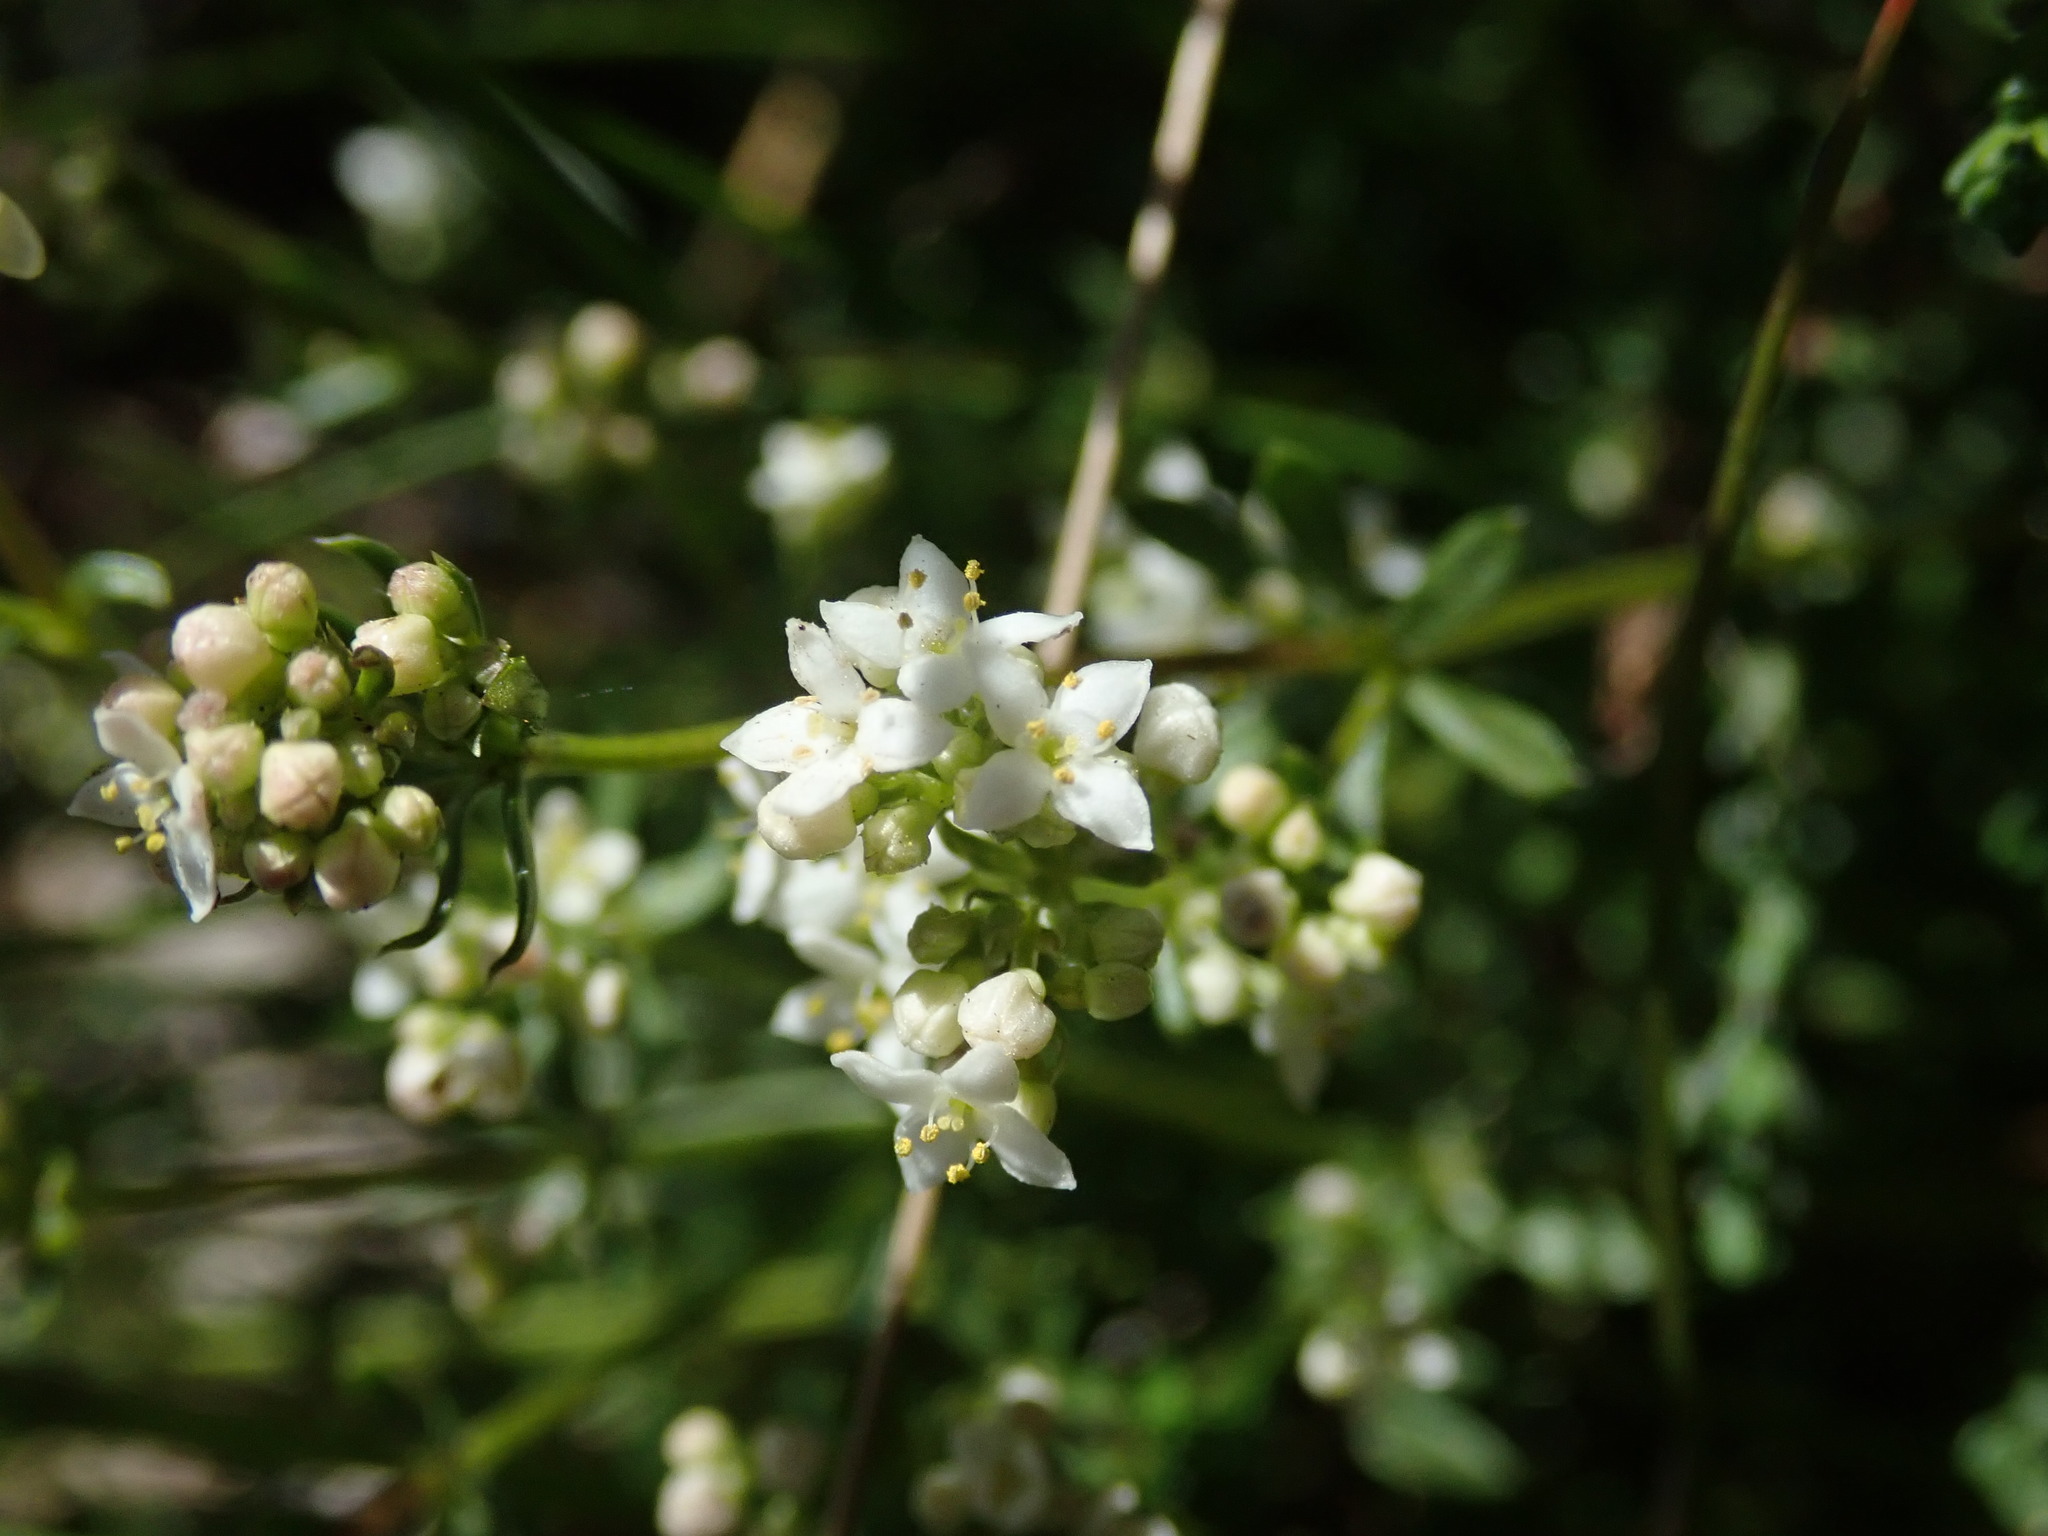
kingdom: Plantae
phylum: Tracheophyta
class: Magnoliopsida
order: Gentianales
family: Rubiaceae
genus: Galium
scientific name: Galium saxatile
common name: Heath bedstraw
